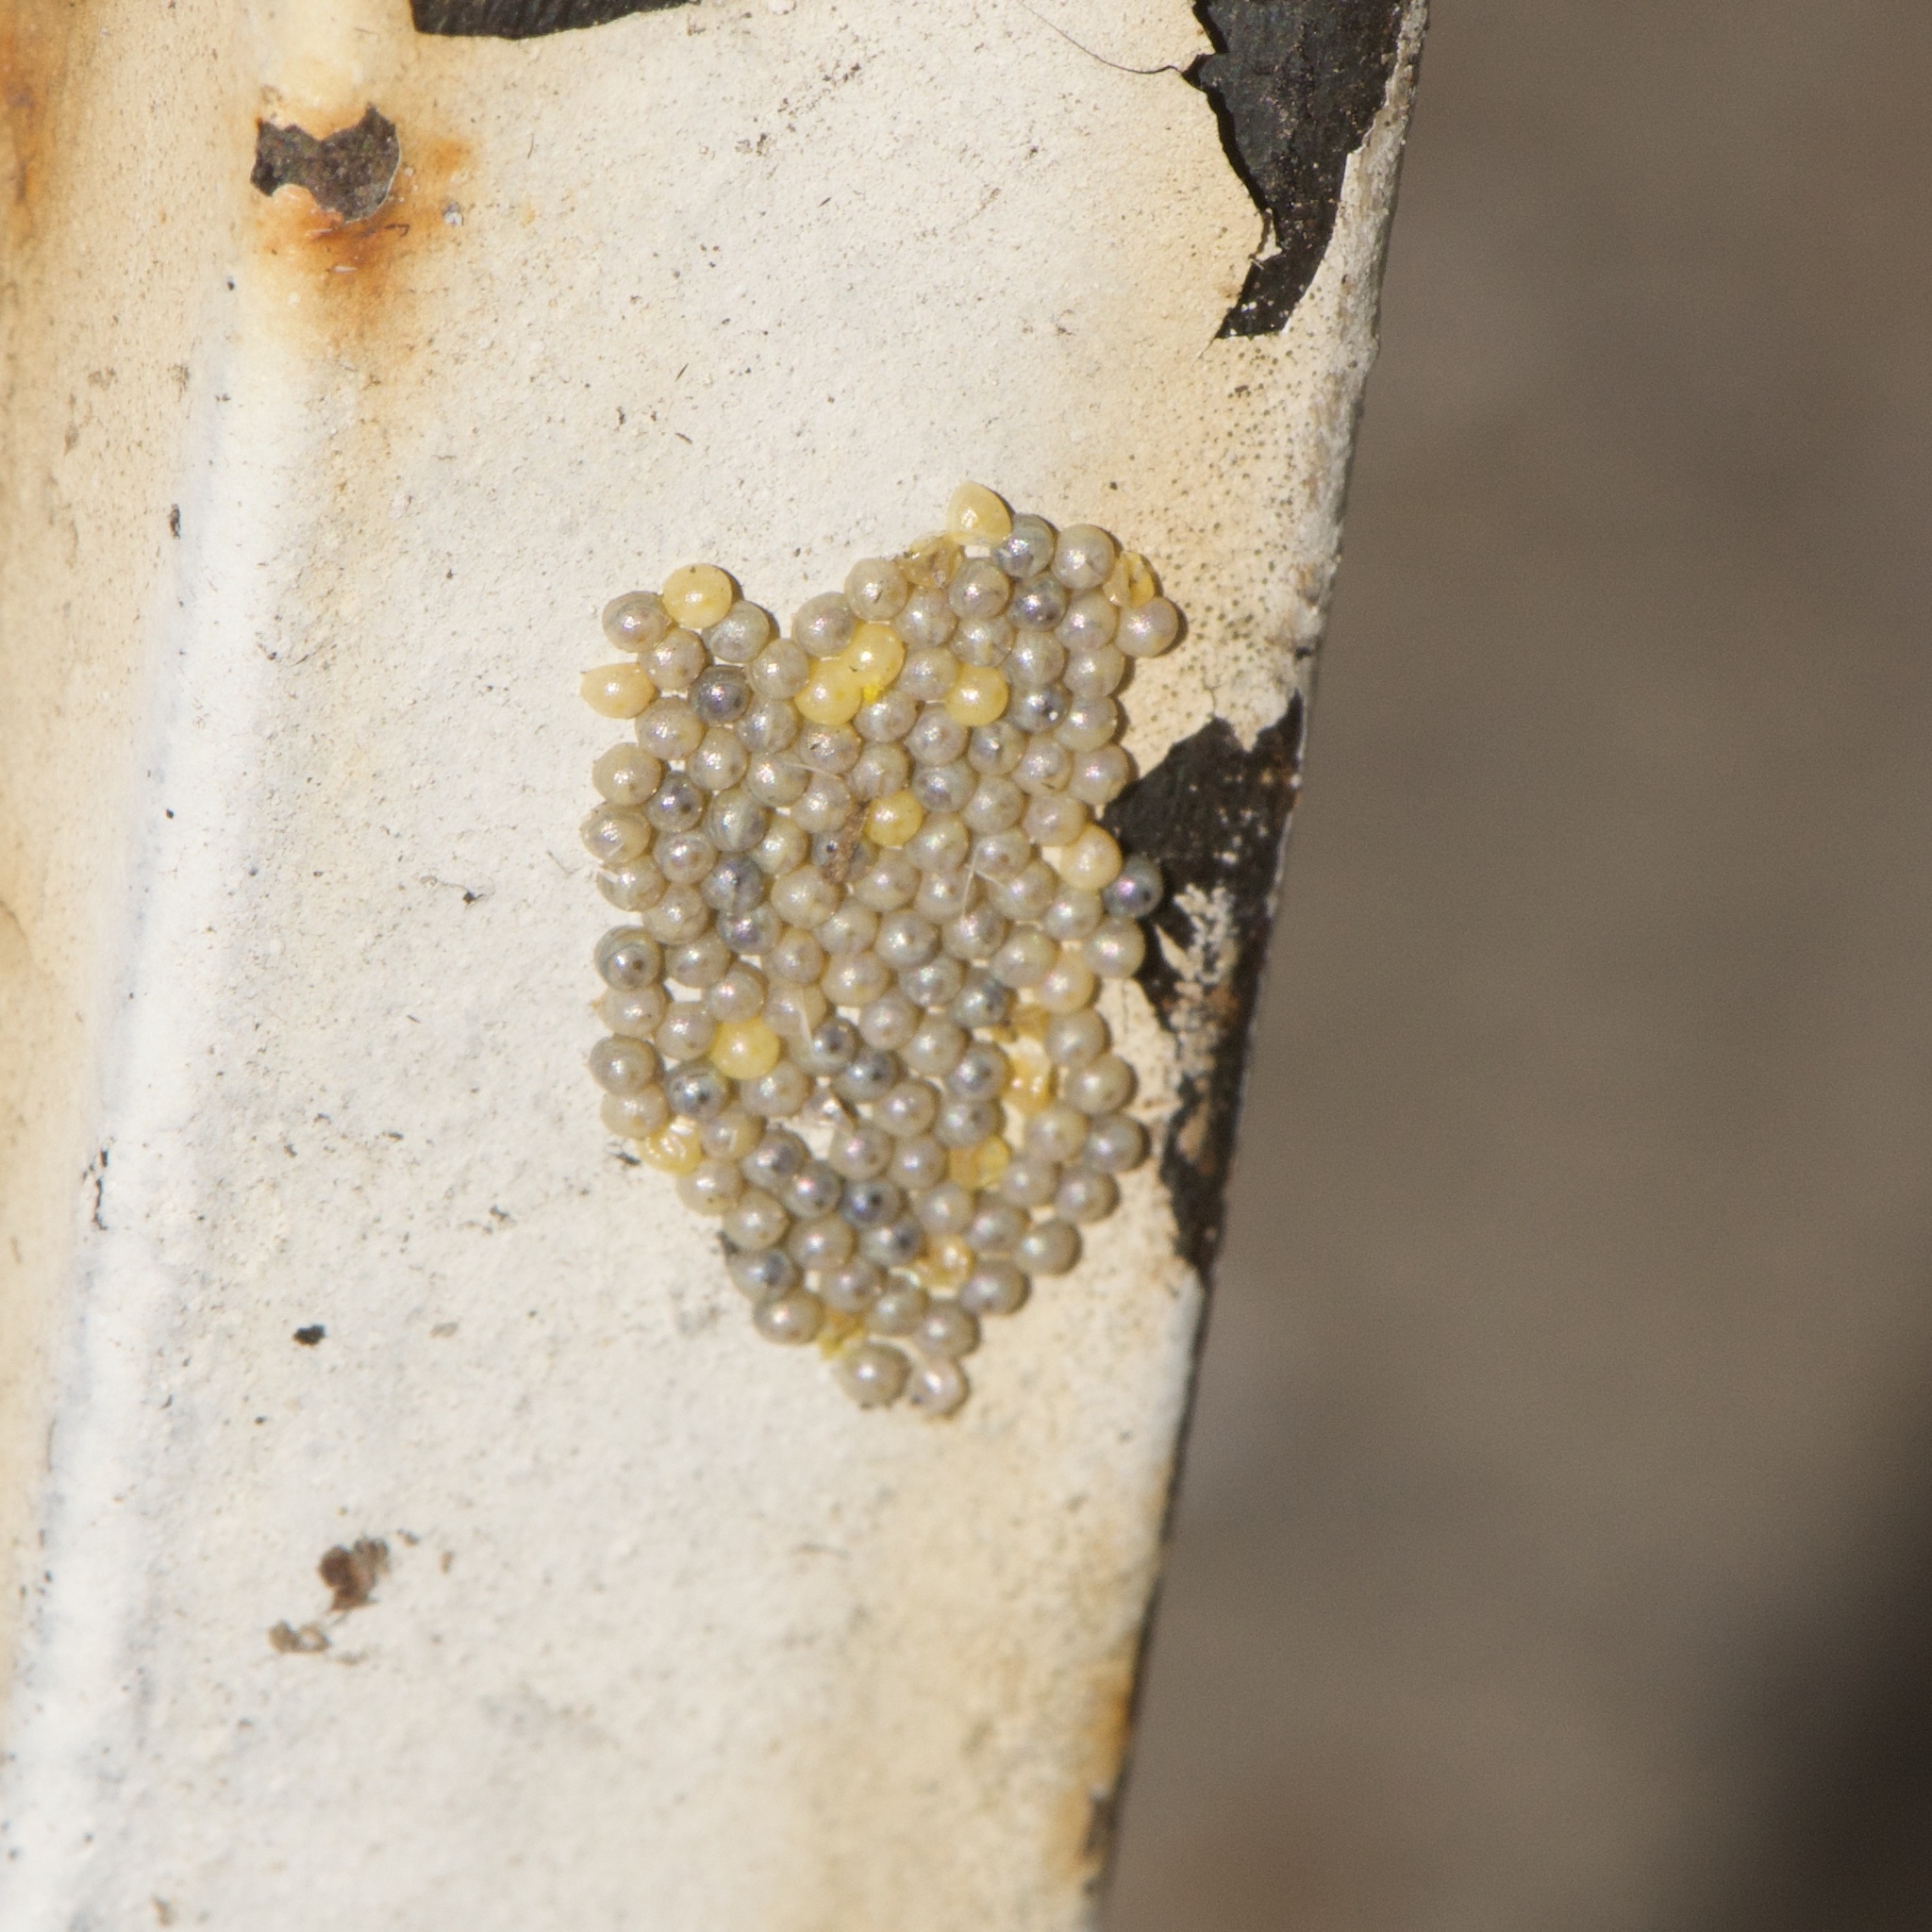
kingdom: Animalia
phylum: Arthropoda
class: Insecta
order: Lepidoptera
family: Erebidae
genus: Estigmene
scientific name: Estigmene acrea
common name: Salt marsh moth
